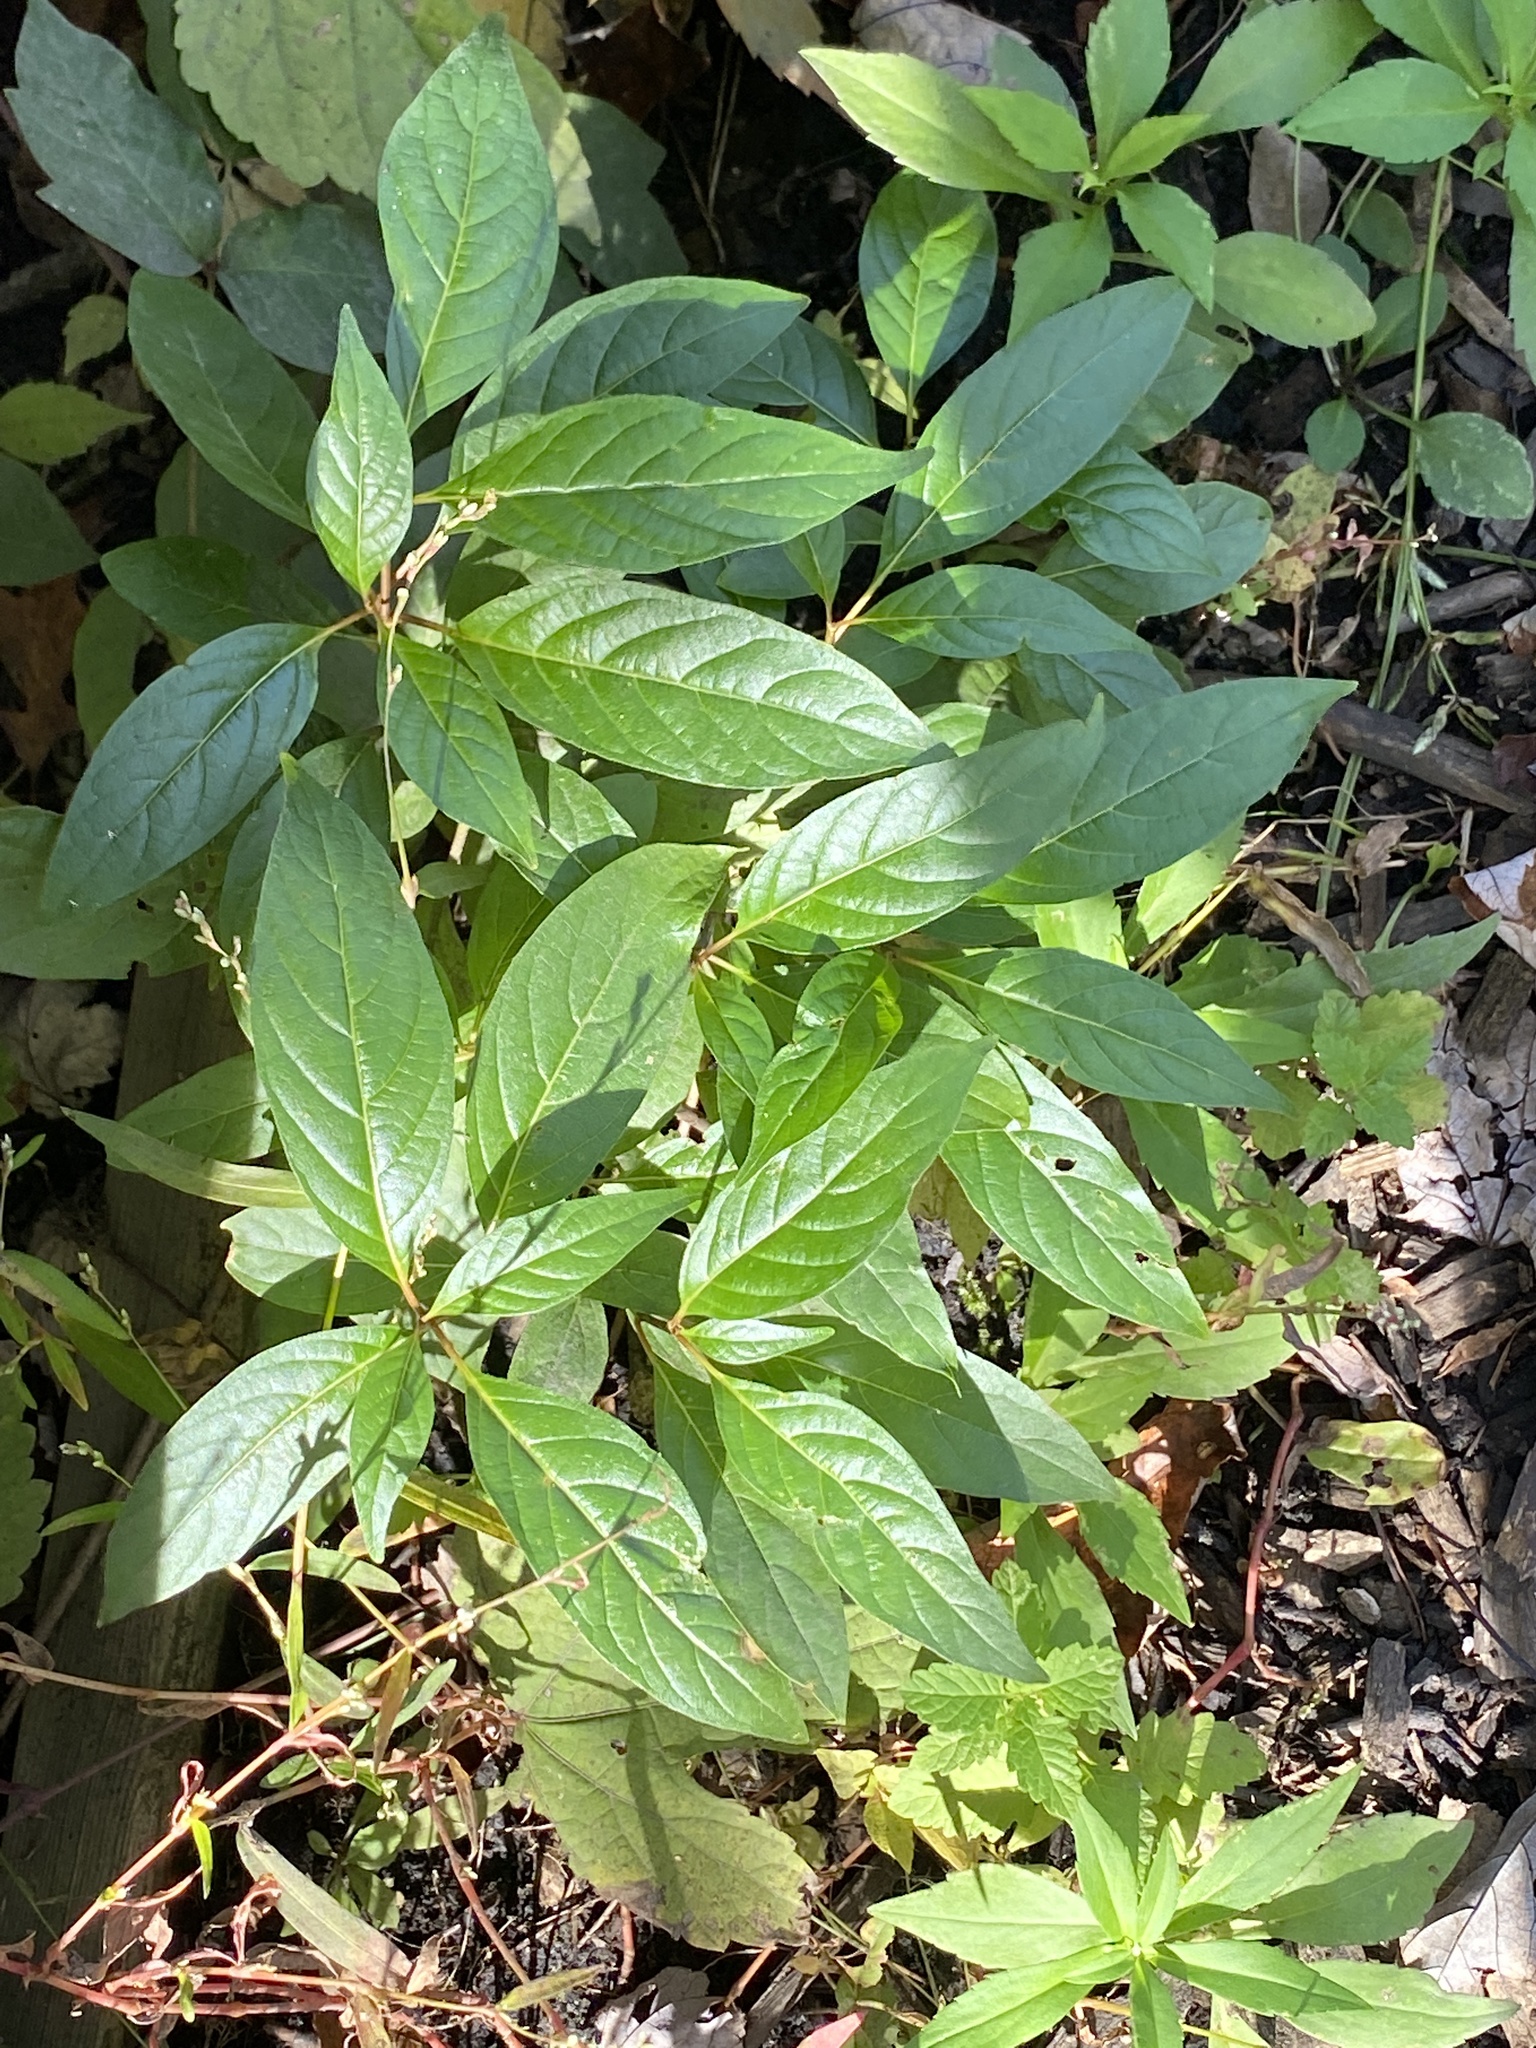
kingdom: Plantae
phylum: Tracheophyta
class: Magnoliopsida
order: Gentianales
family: Rubiaceae
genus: Cephalanthus
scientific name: Cephalanthus occidentalis
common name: Button-willow
